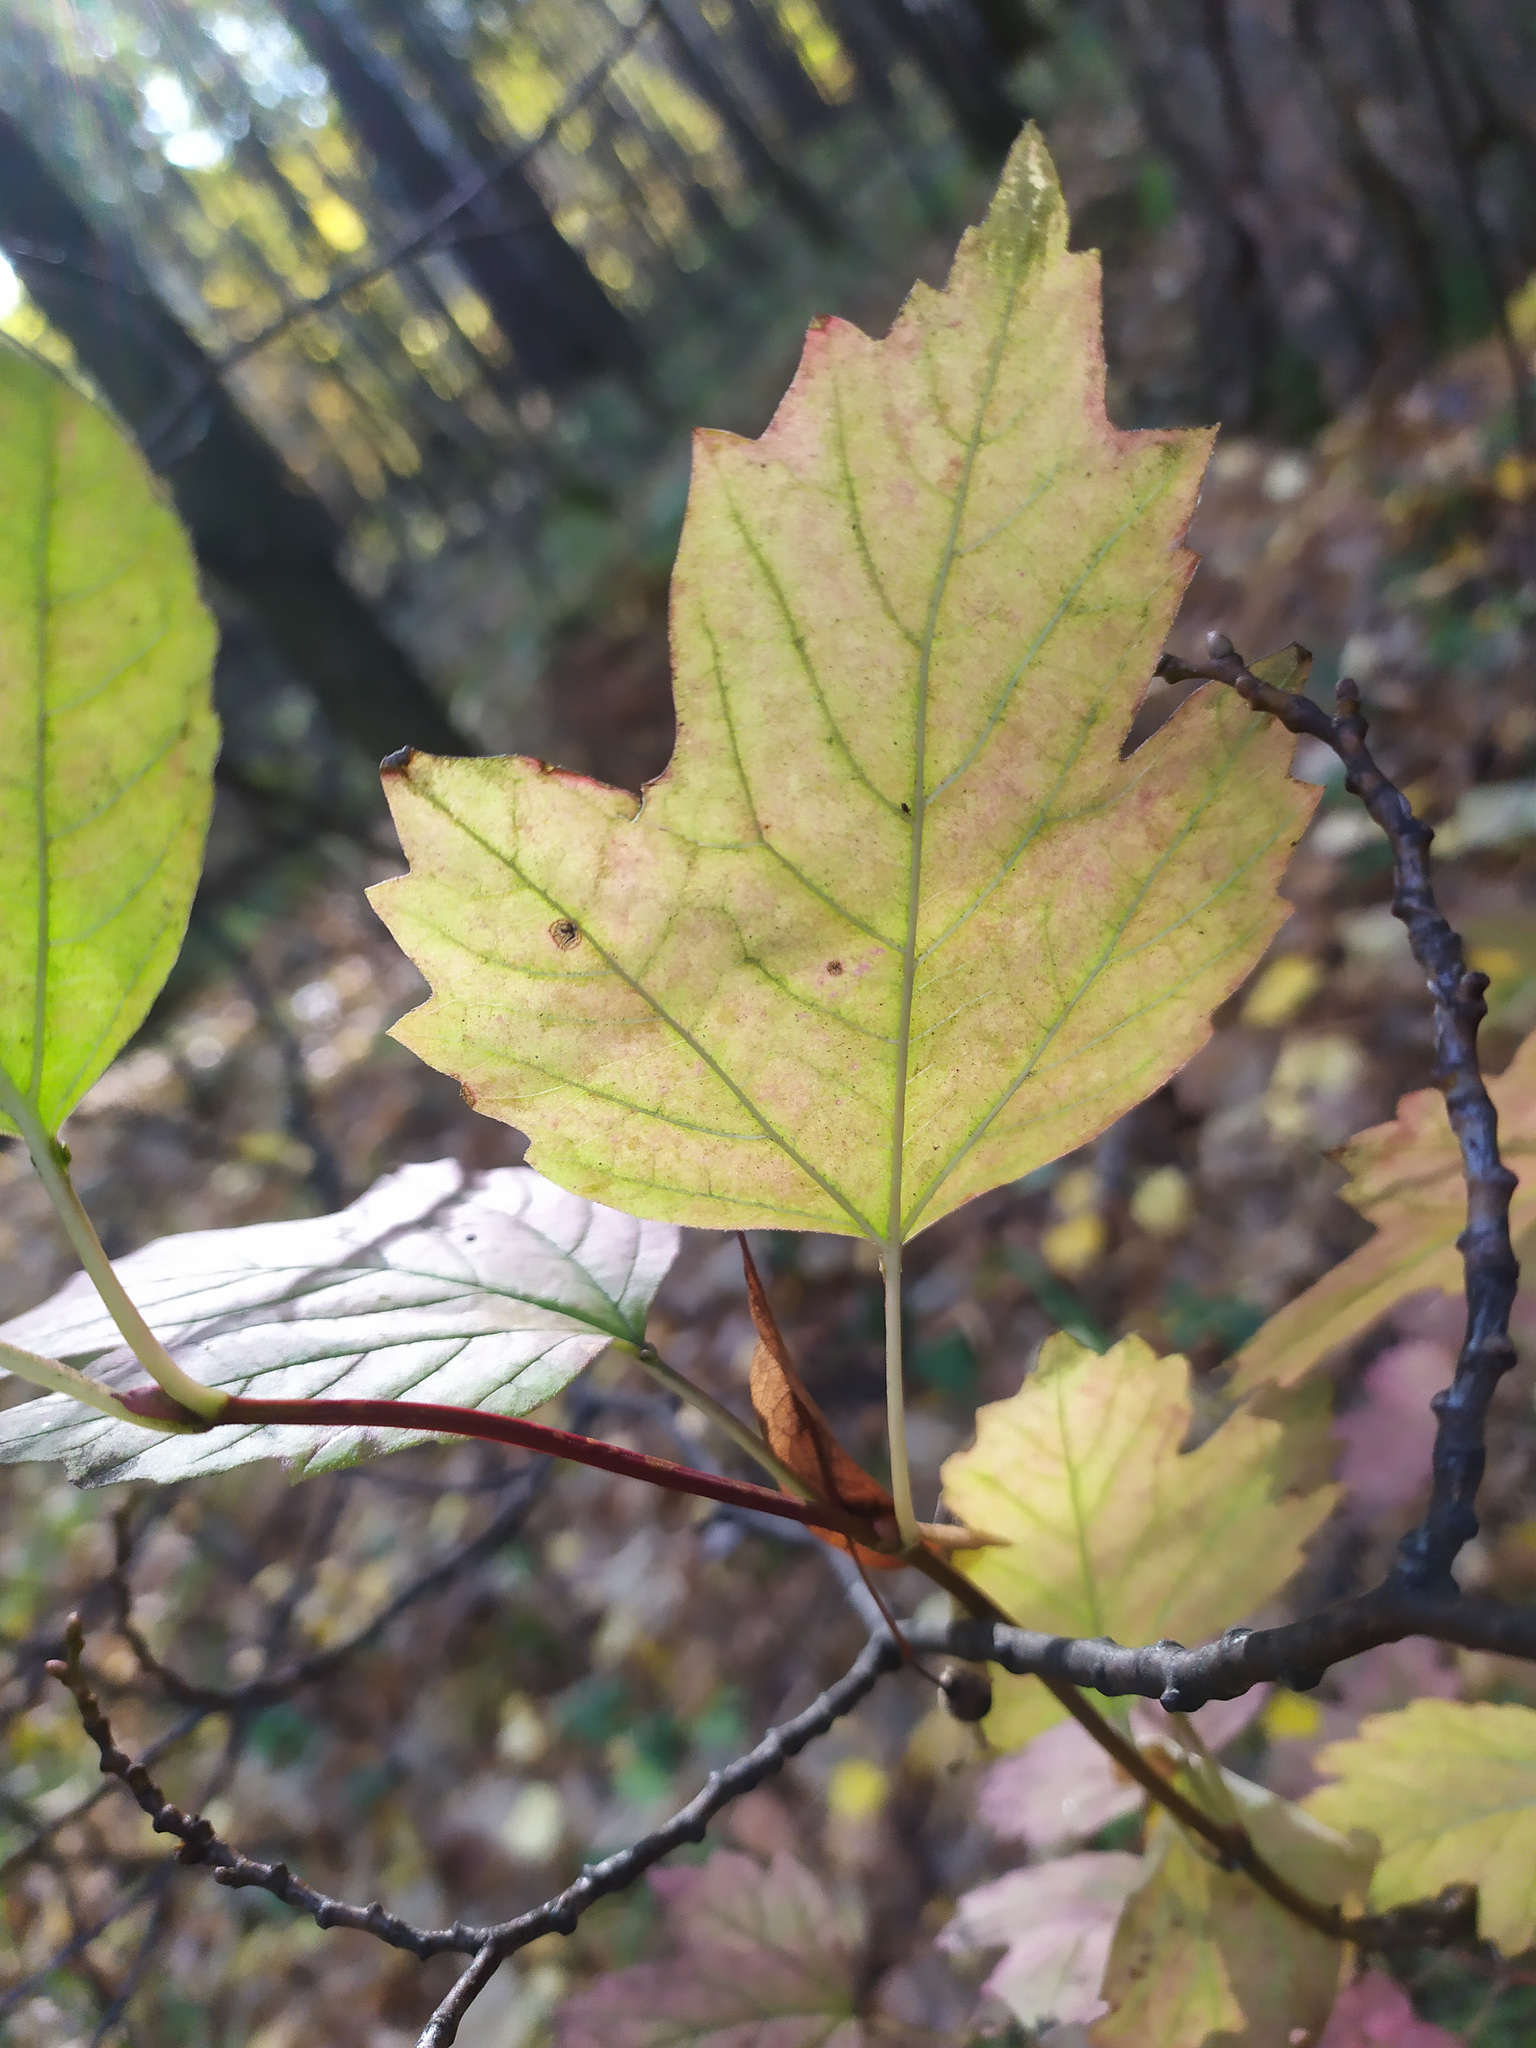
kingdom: Plantae
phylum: Tracheophyta
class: Magnoliopsida
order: Dipsacales
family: Viburnaceae
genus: Viburnum
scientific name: Viburnum opulus
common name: Guelder-rose
